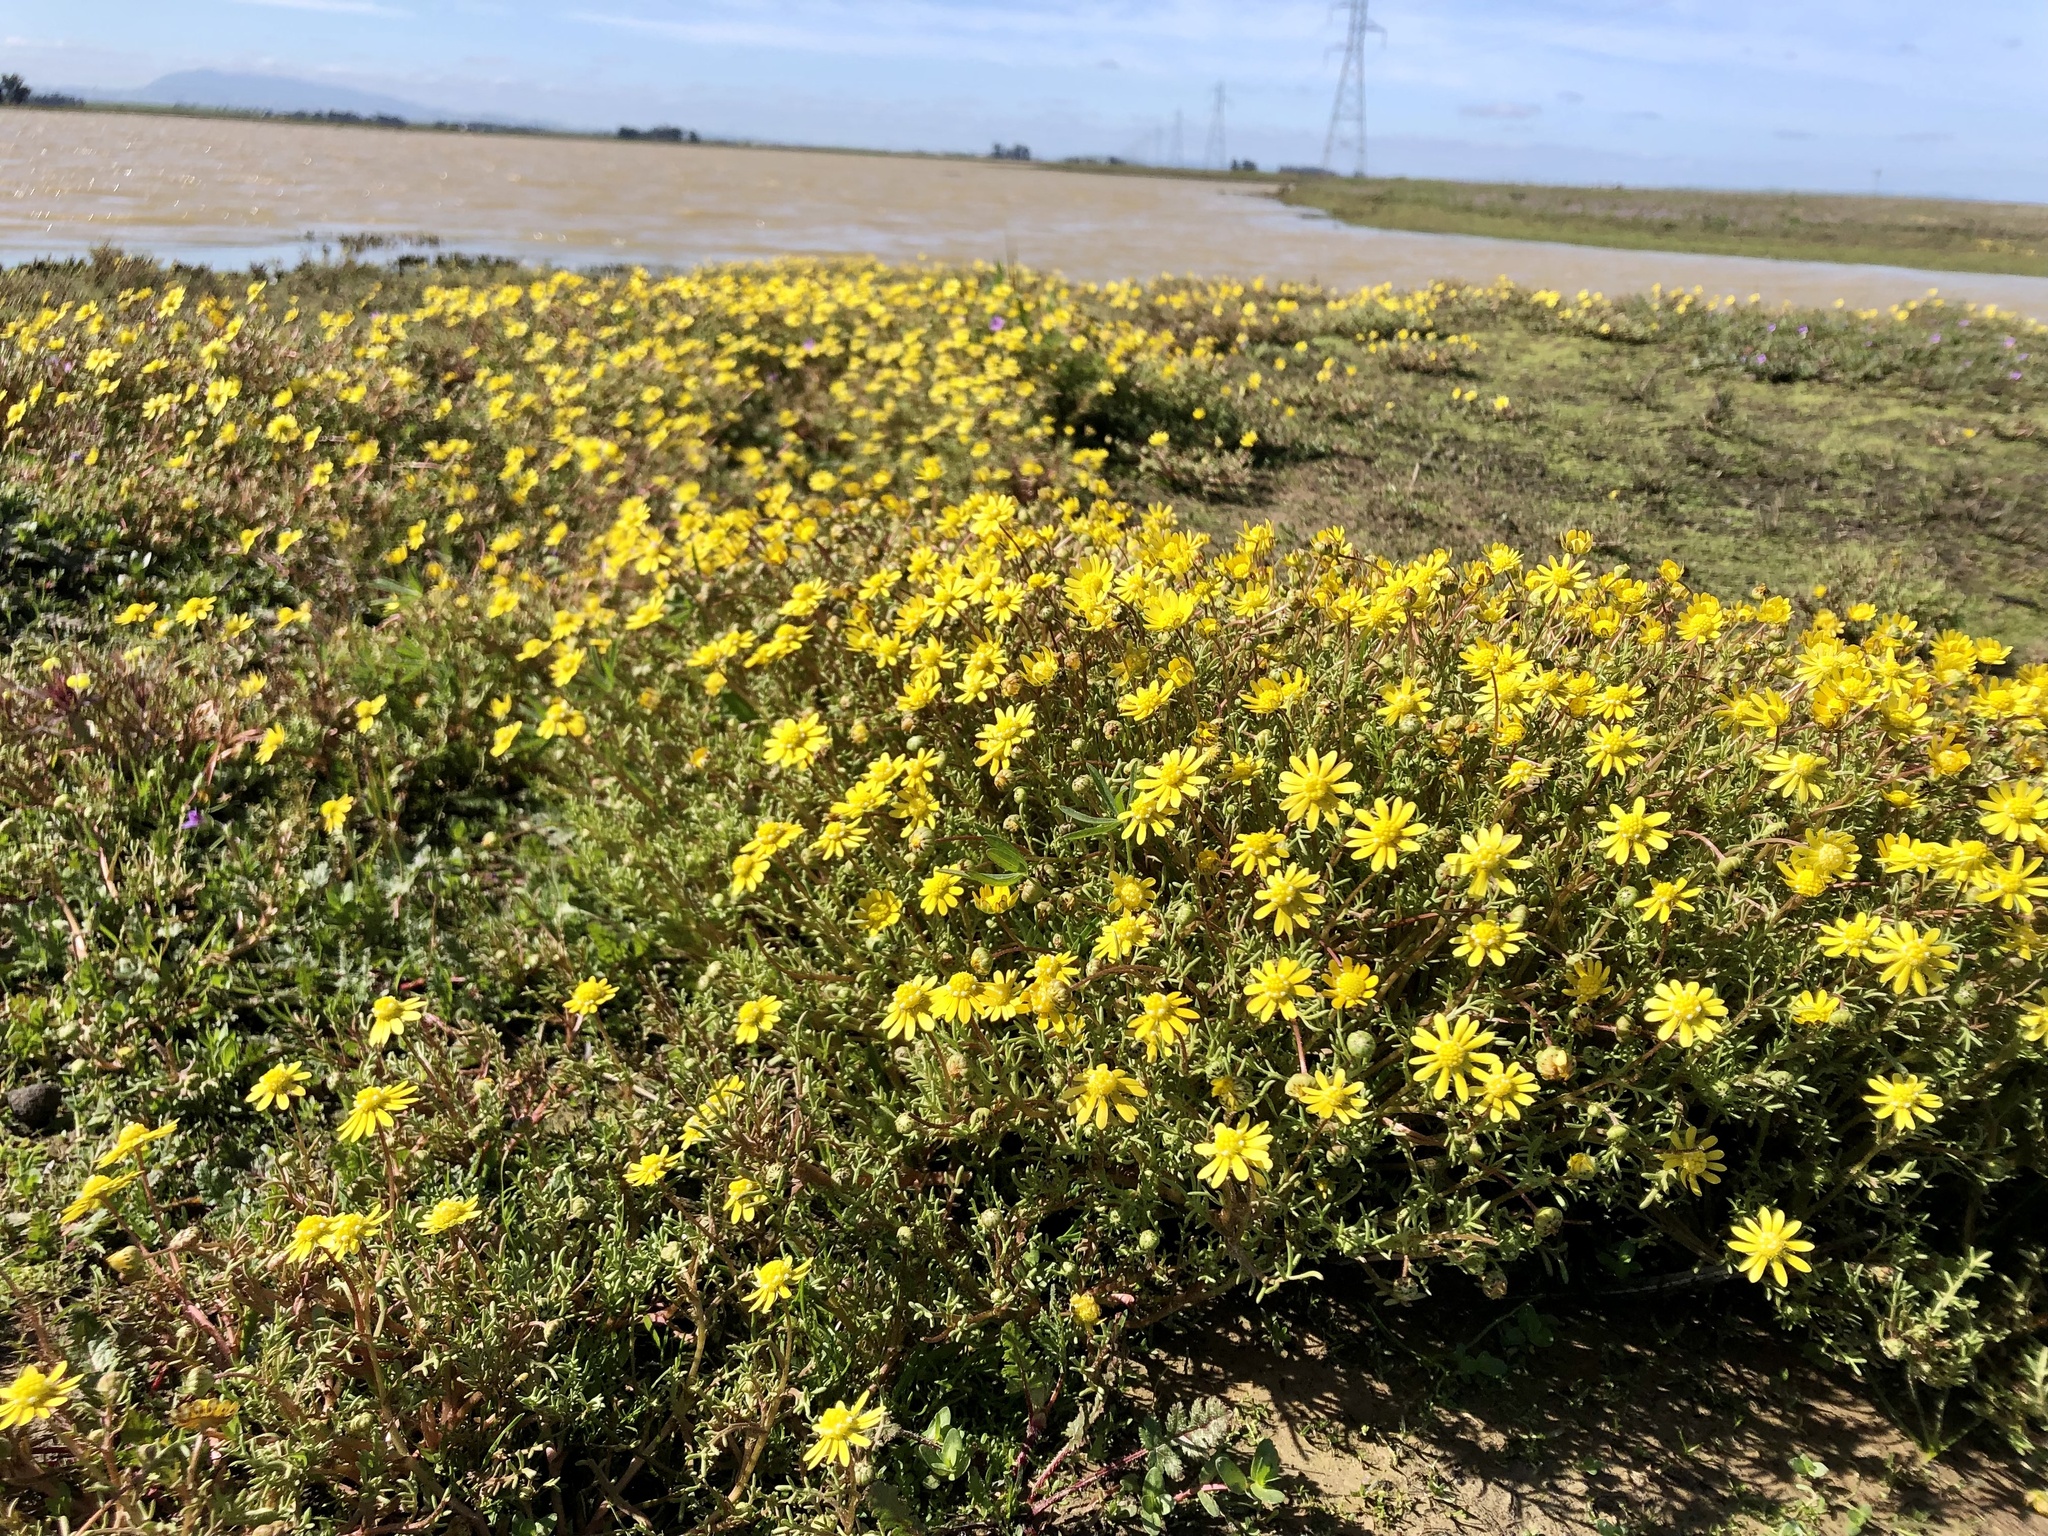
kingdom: Plantae
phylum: Tracheophyta
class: Magnoliopsida
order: Asterales
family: Asteraceae
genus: Blennosperma
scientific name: Blennosperma nanum
